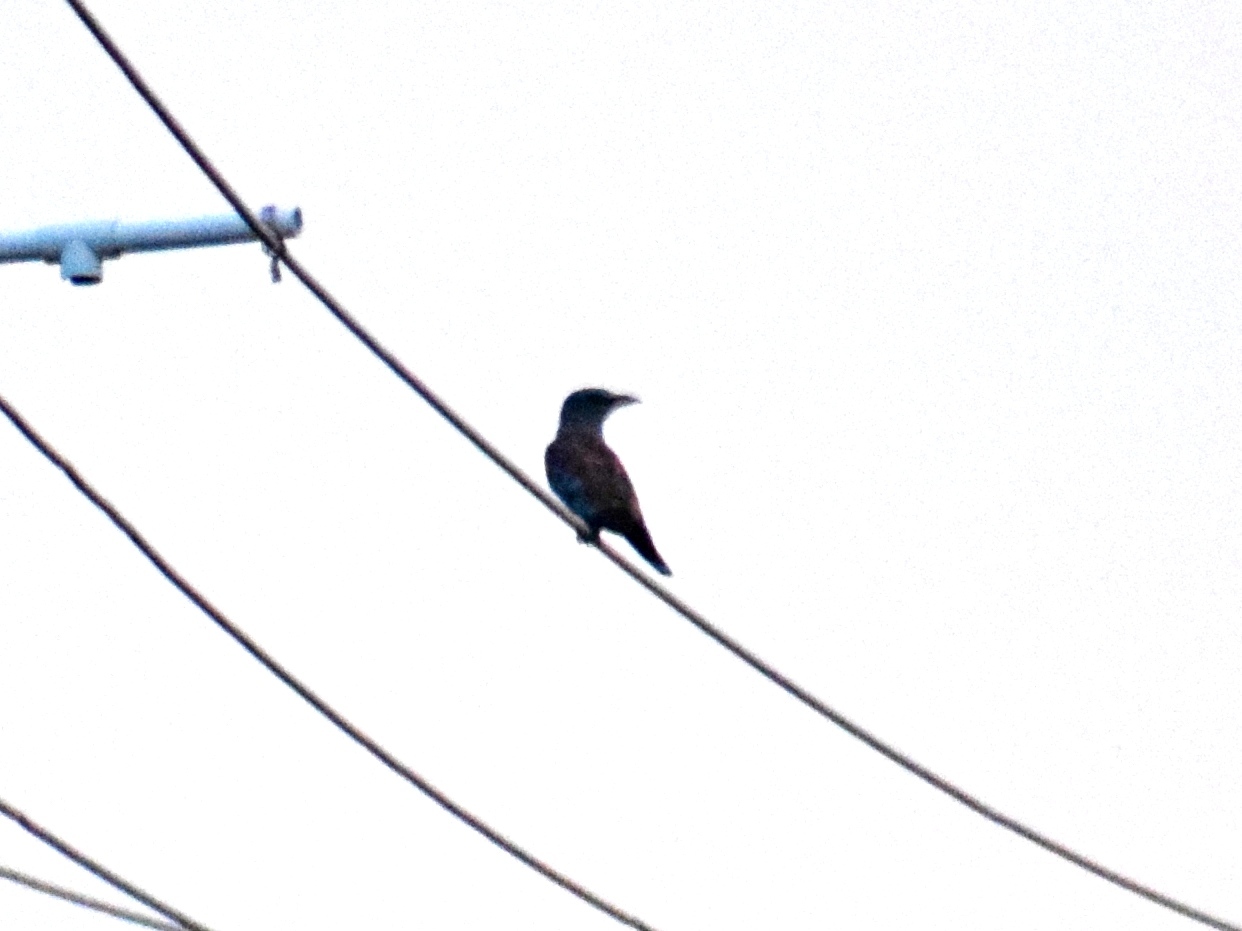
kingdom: Animalia
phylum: Chordata
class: Aves
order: Coraciiformes
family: Coraciidae
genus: Coracias
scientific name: Coracias garrulus
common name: European roller
